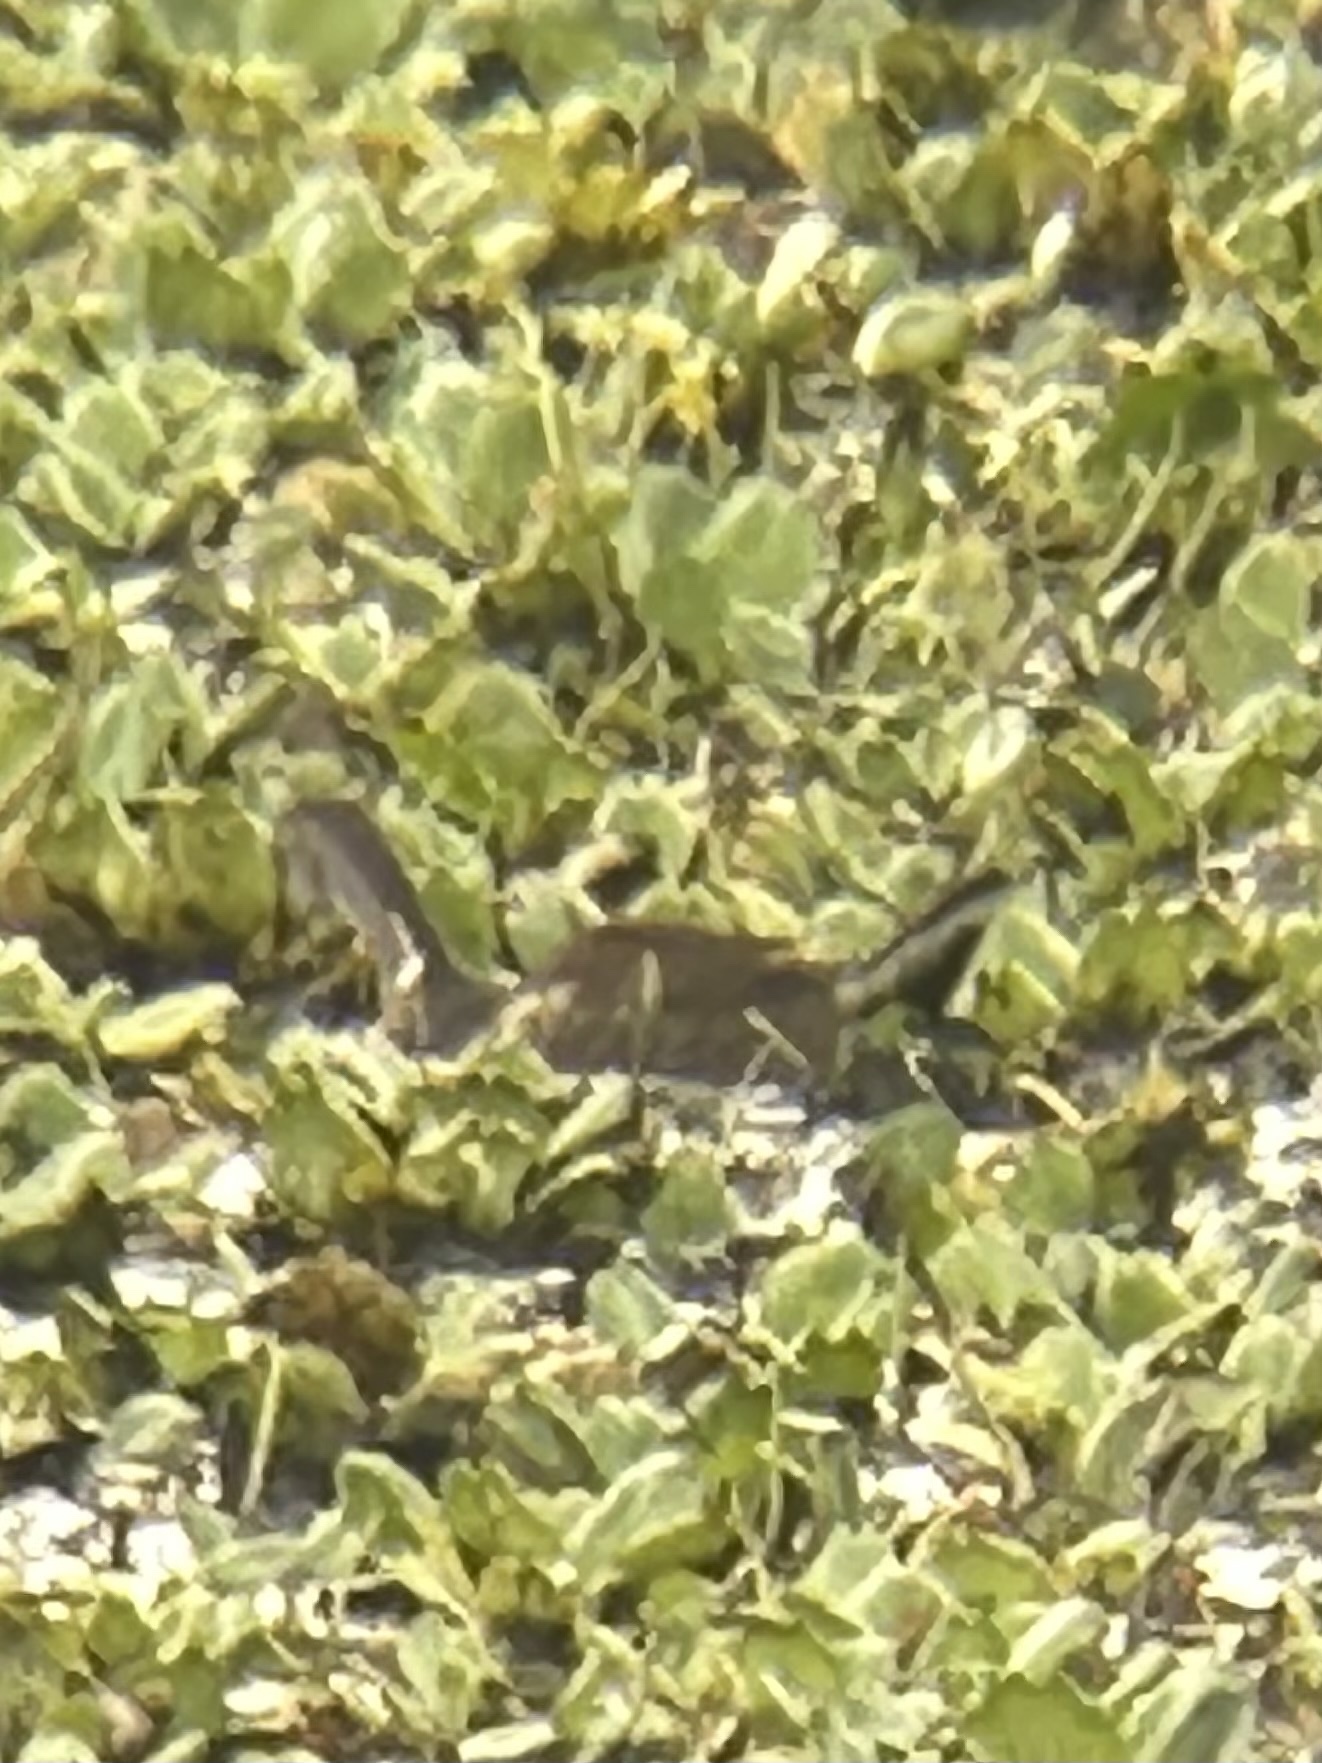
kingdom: Animalia
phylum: Chordata
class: Aves
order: Gruiformes
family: Rallidae
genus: Gallinula
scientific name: Gallinula chloropus
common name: Common moorhen
